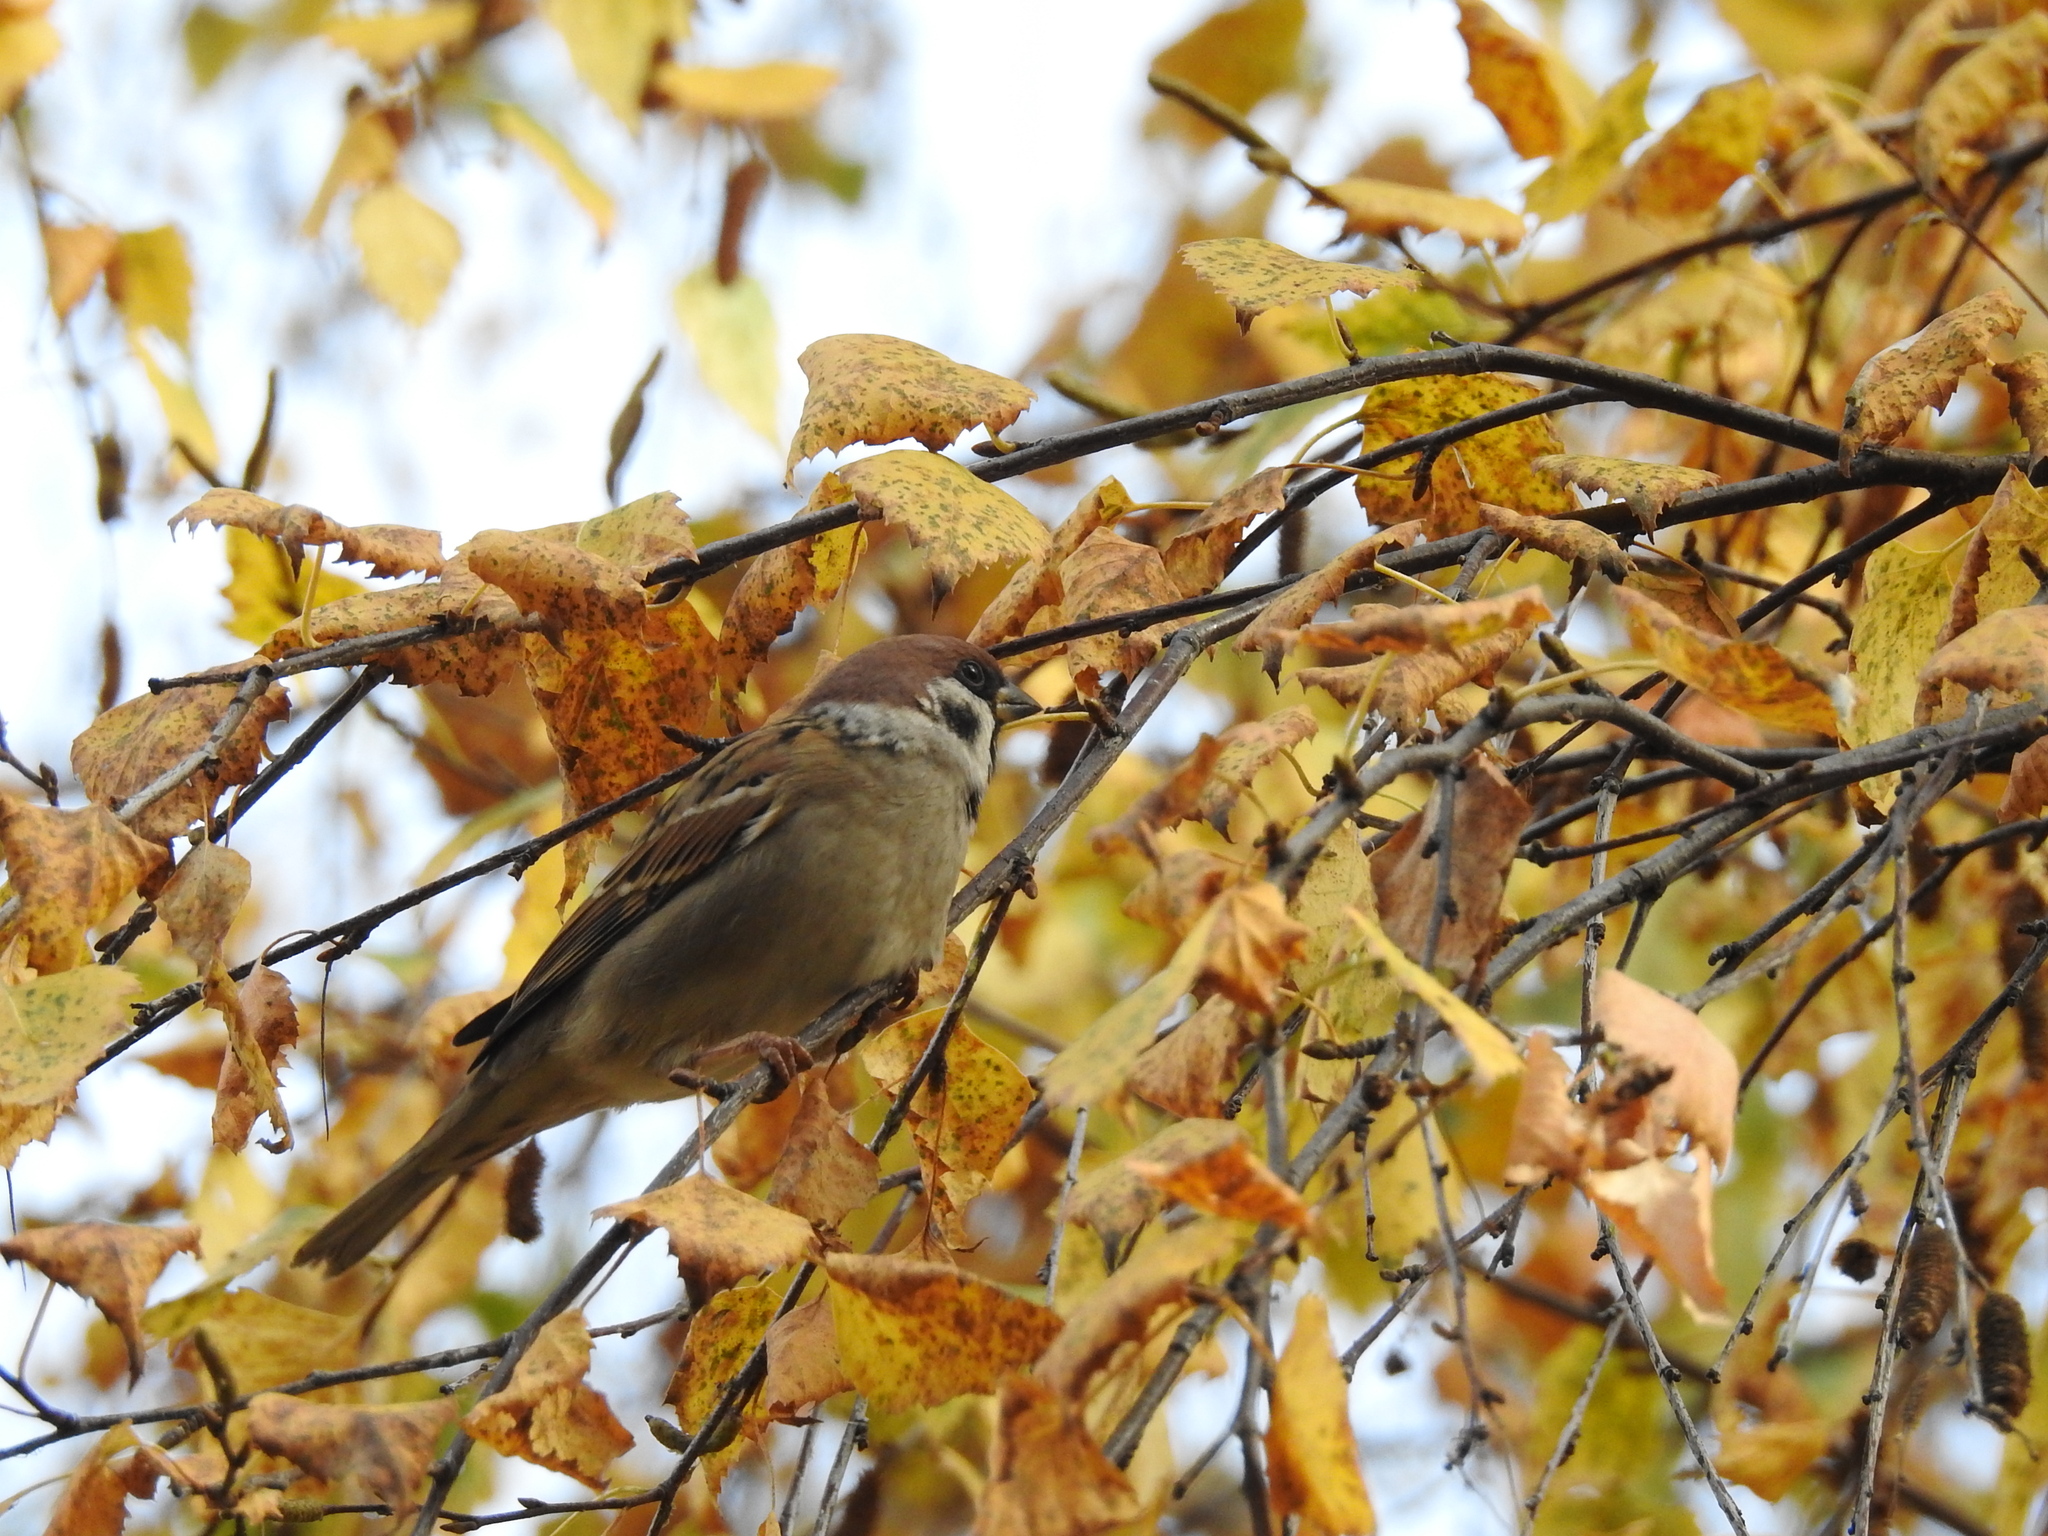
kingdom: Animalia
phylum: Chordata
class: Aves
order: Passeriformes
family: Passeridae
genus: Passer
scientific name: Passer montanus
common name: Eurasian tree sparrow
